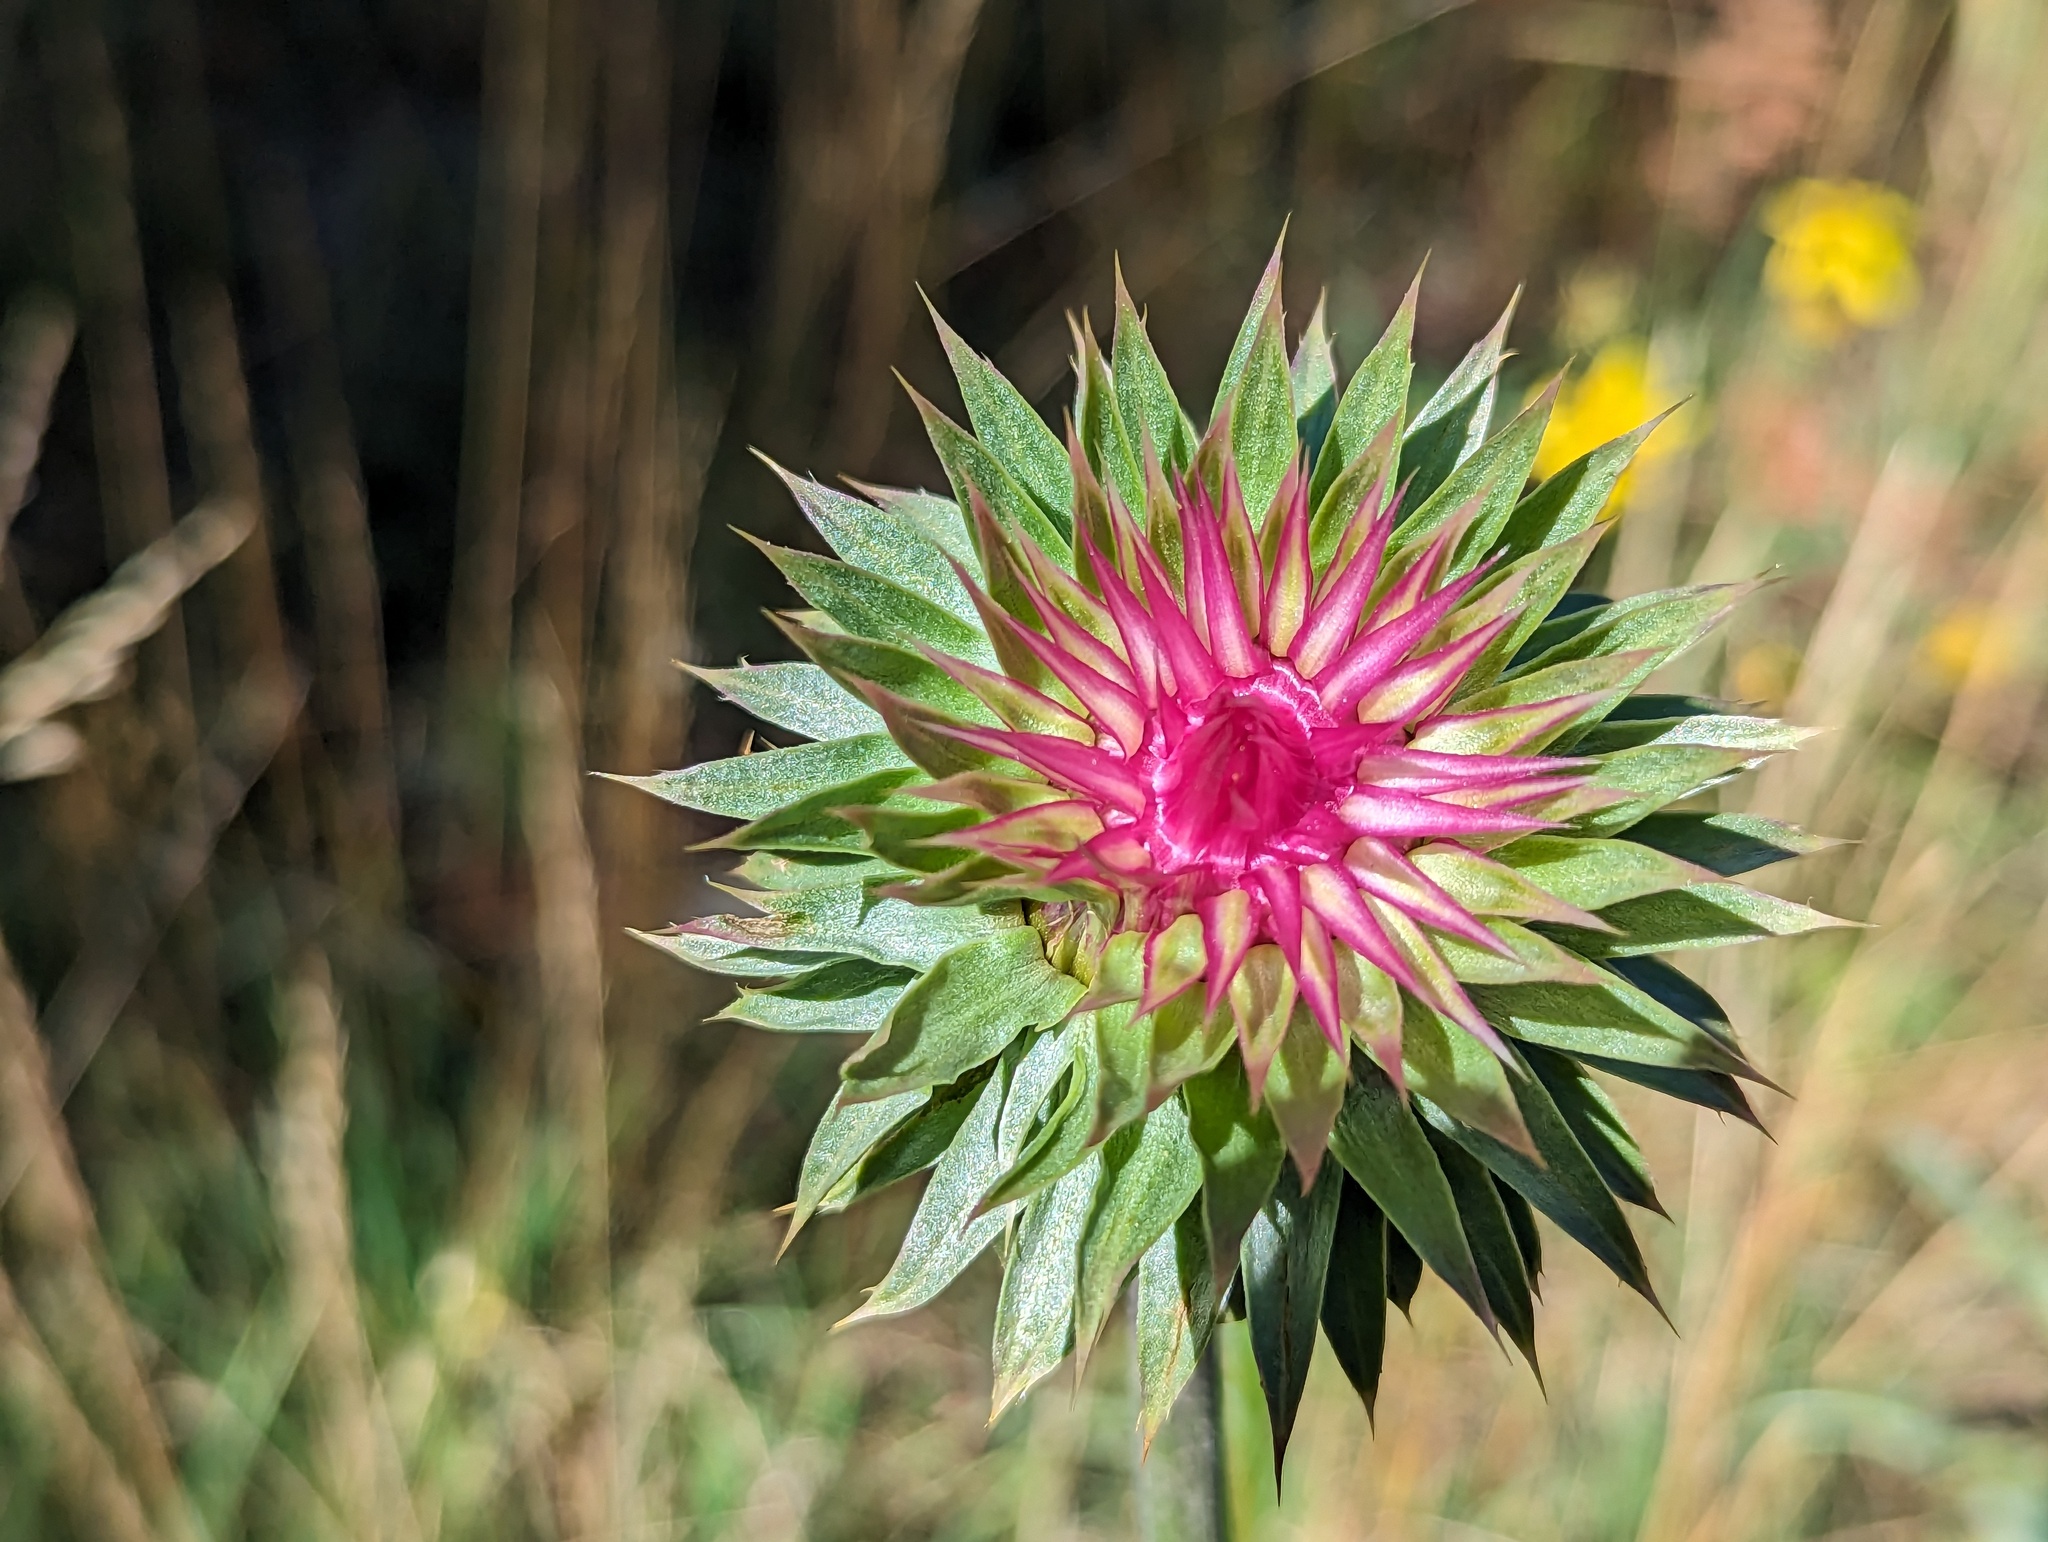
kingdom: Plantae
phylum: Tracheophyta
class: Magnoliopsida
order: Asterales
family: Asteraceae
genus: Carduus
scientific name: Carduus nutans
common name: Musk thistle
